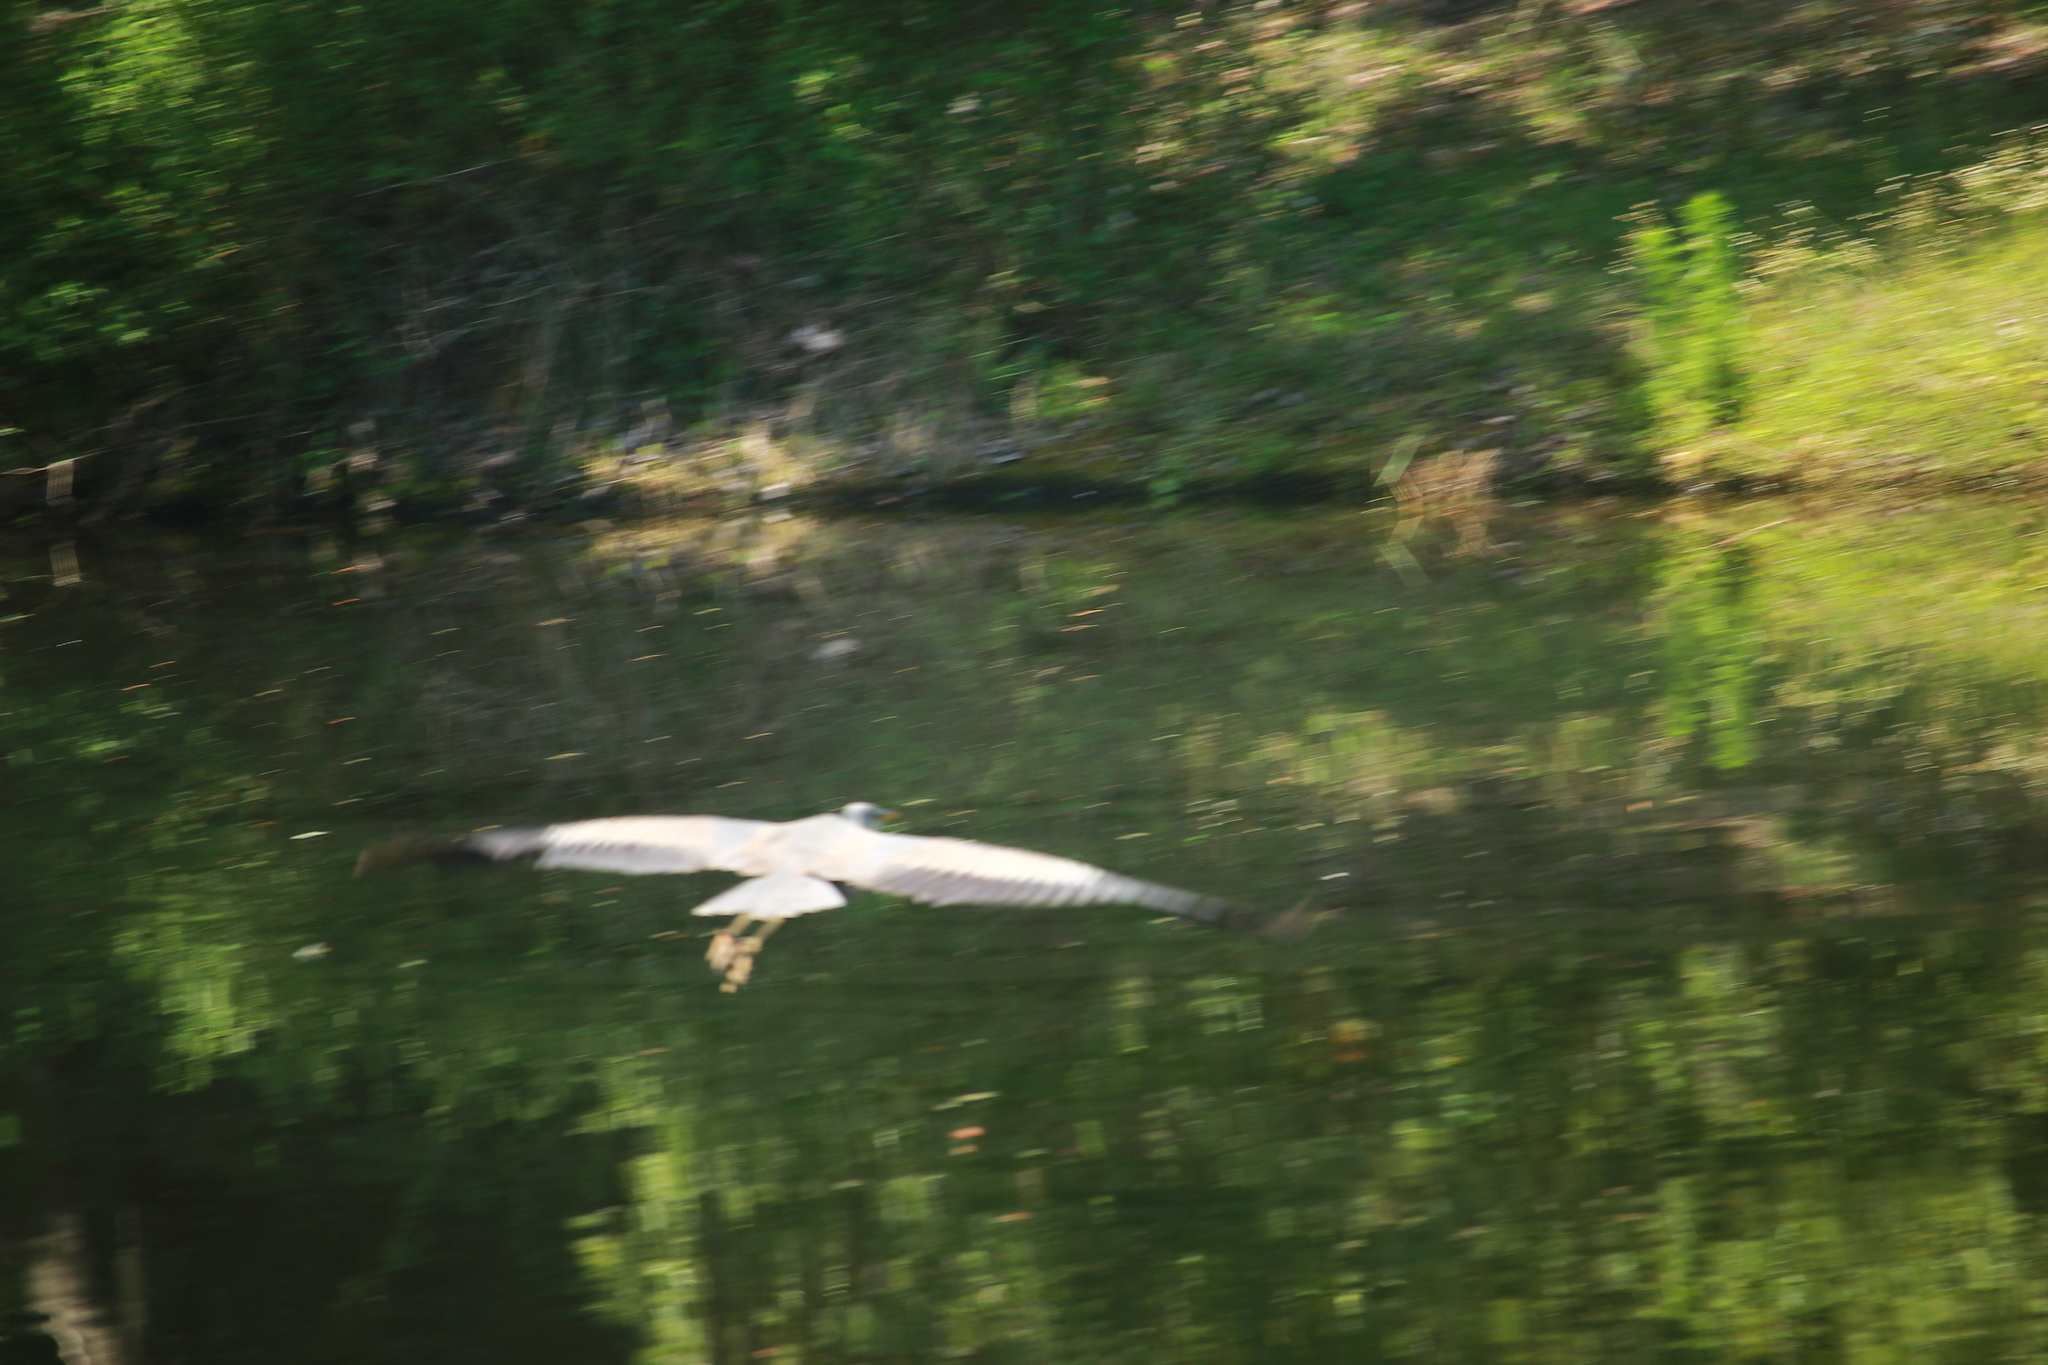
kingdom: Animalia
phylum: Chordata
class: Aves
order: Pelecaniformes
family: Ardeidae
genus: Ardea
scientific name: Ardea herodias
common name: Great blue heron
